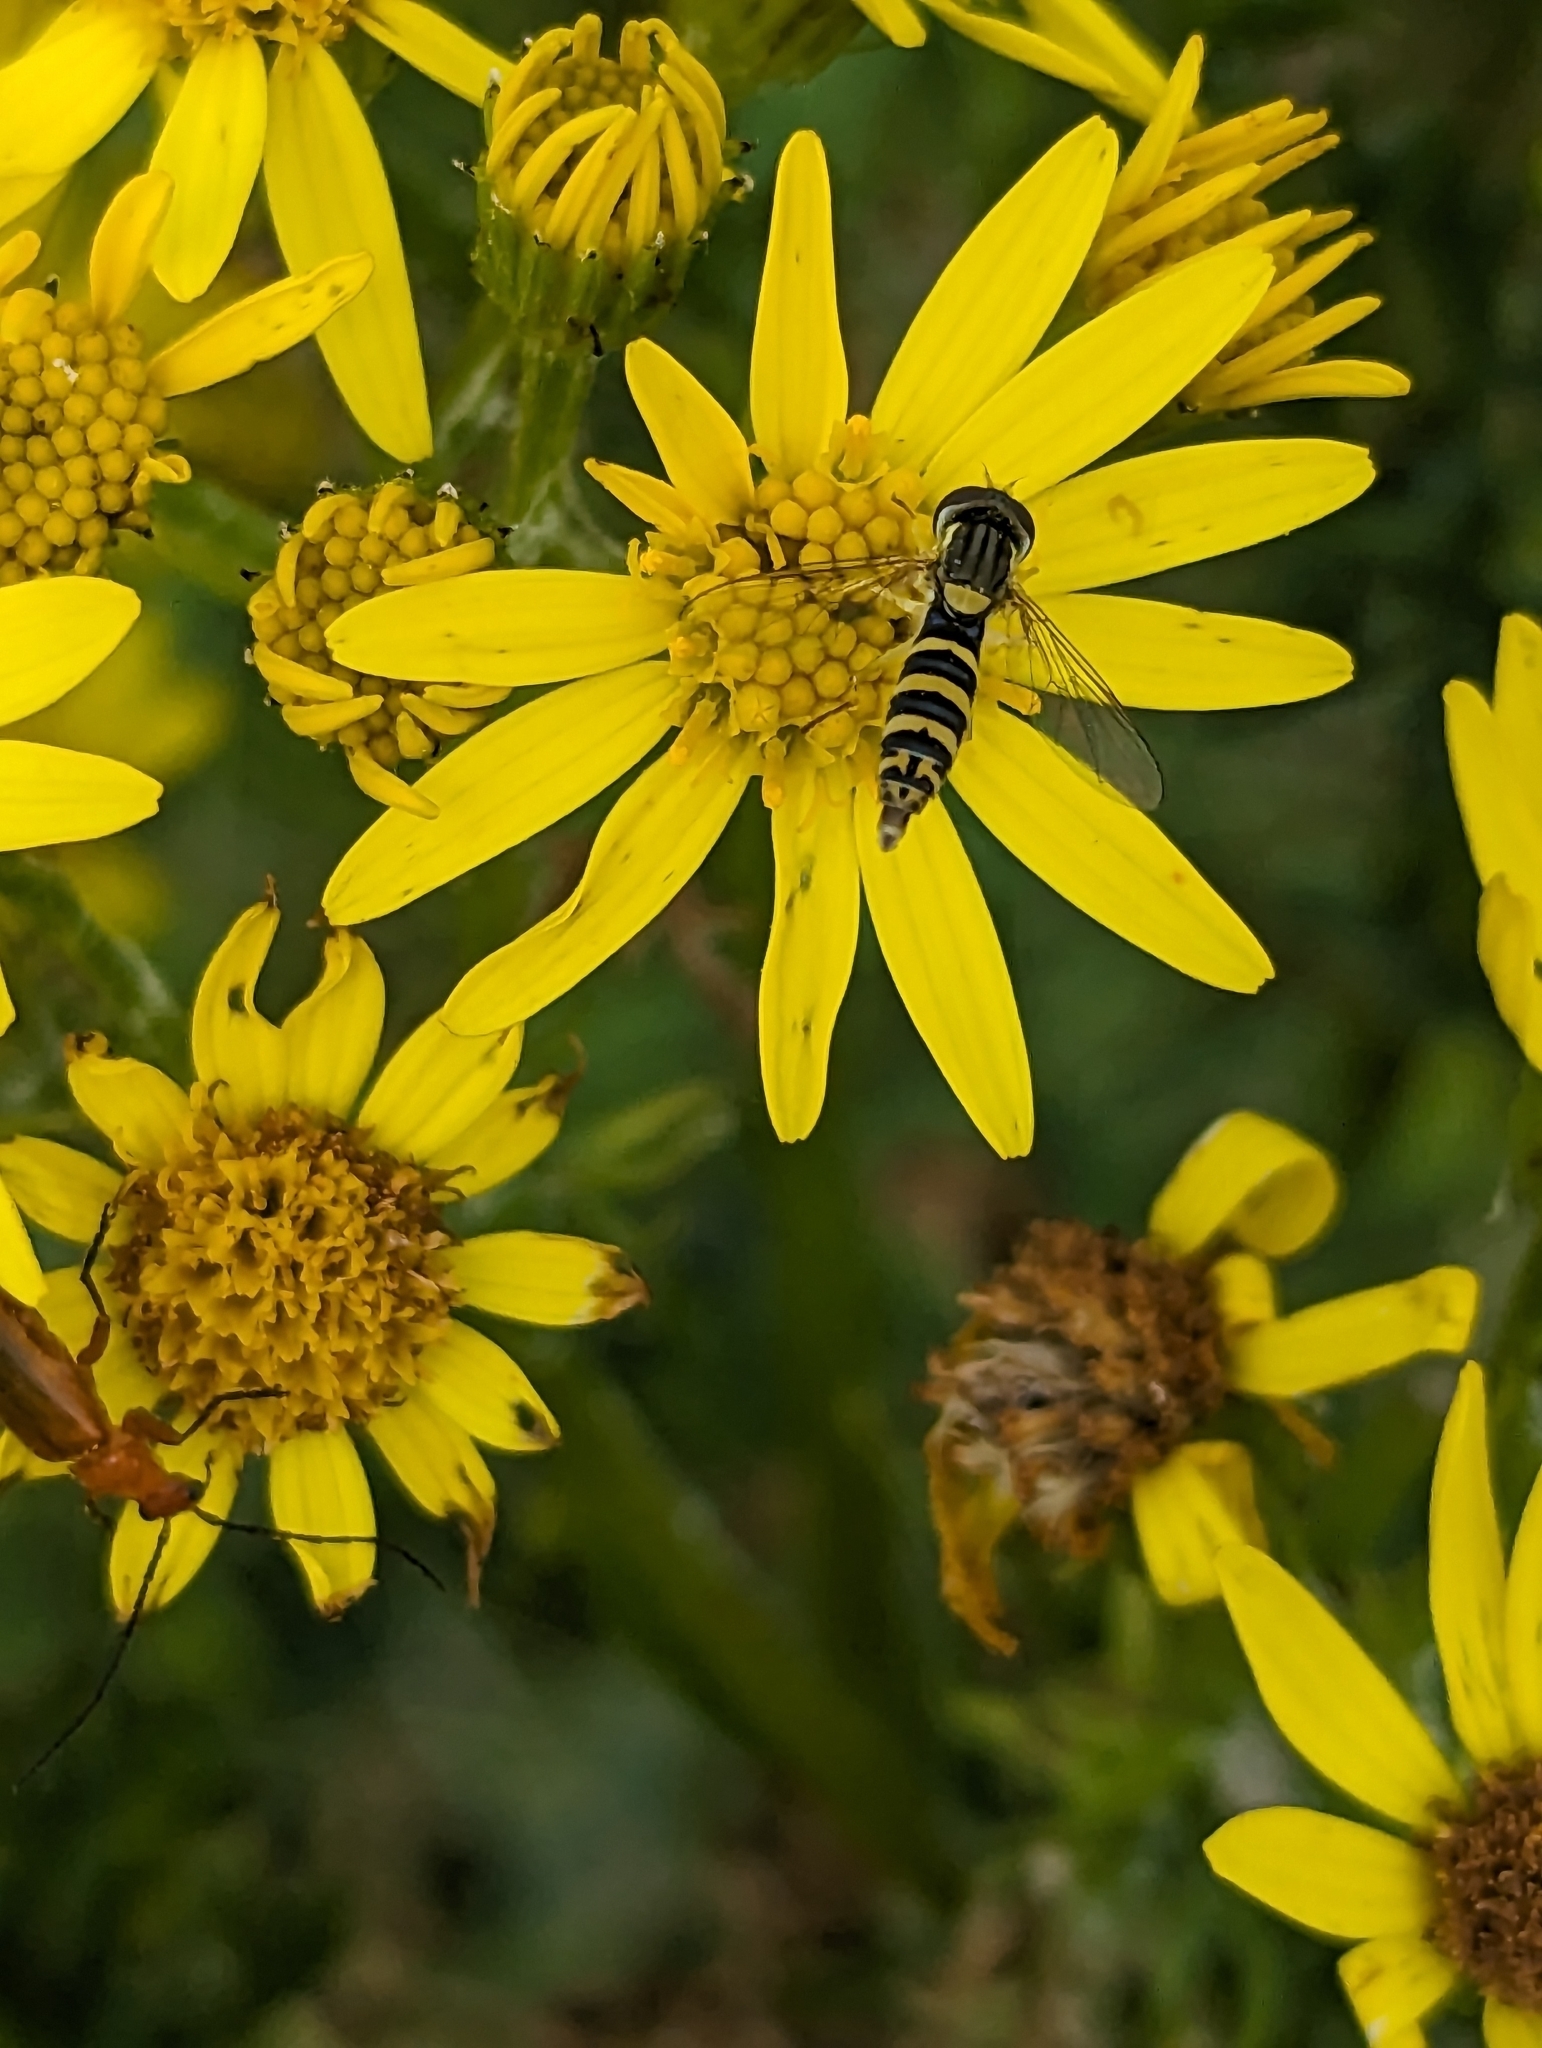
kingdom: Animalia
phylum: Arthropoda
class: Insecta
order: Diptera
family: Syrphidae
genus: Sphaerophoria
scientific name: Sphaerophoria
